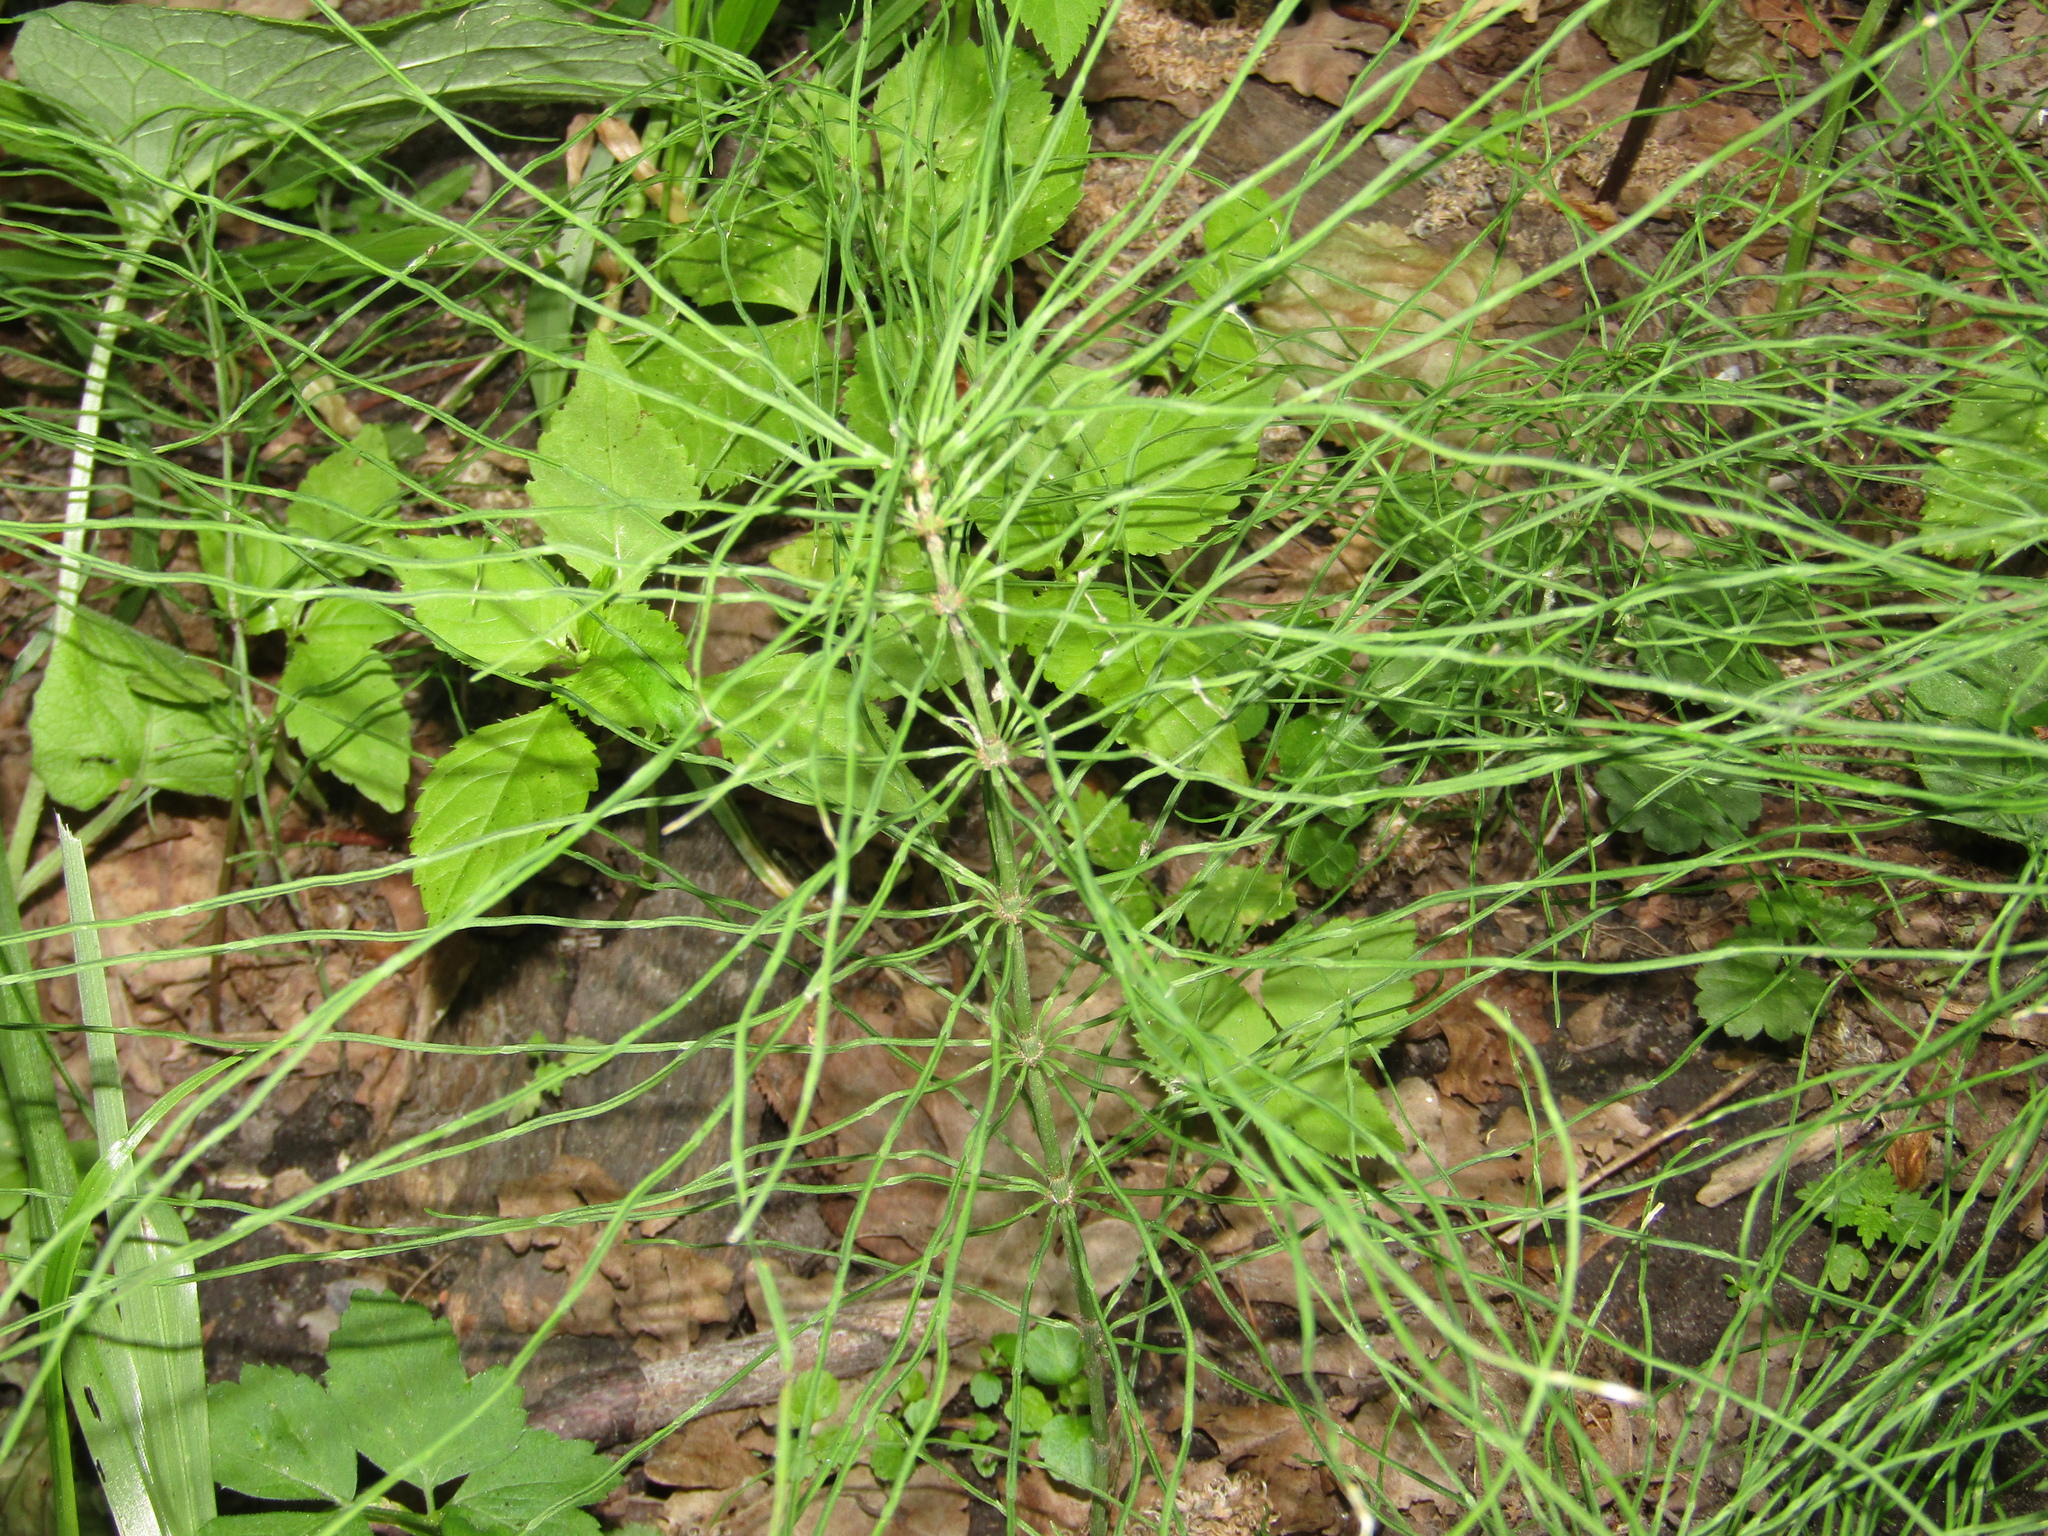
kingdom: Plantae
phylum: Tracheophyta
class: Polypodiopsida
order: Equisetales
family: Equisetaceae
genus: Equisetum
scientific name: Equisetum pratense
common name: Meadow horsetail
